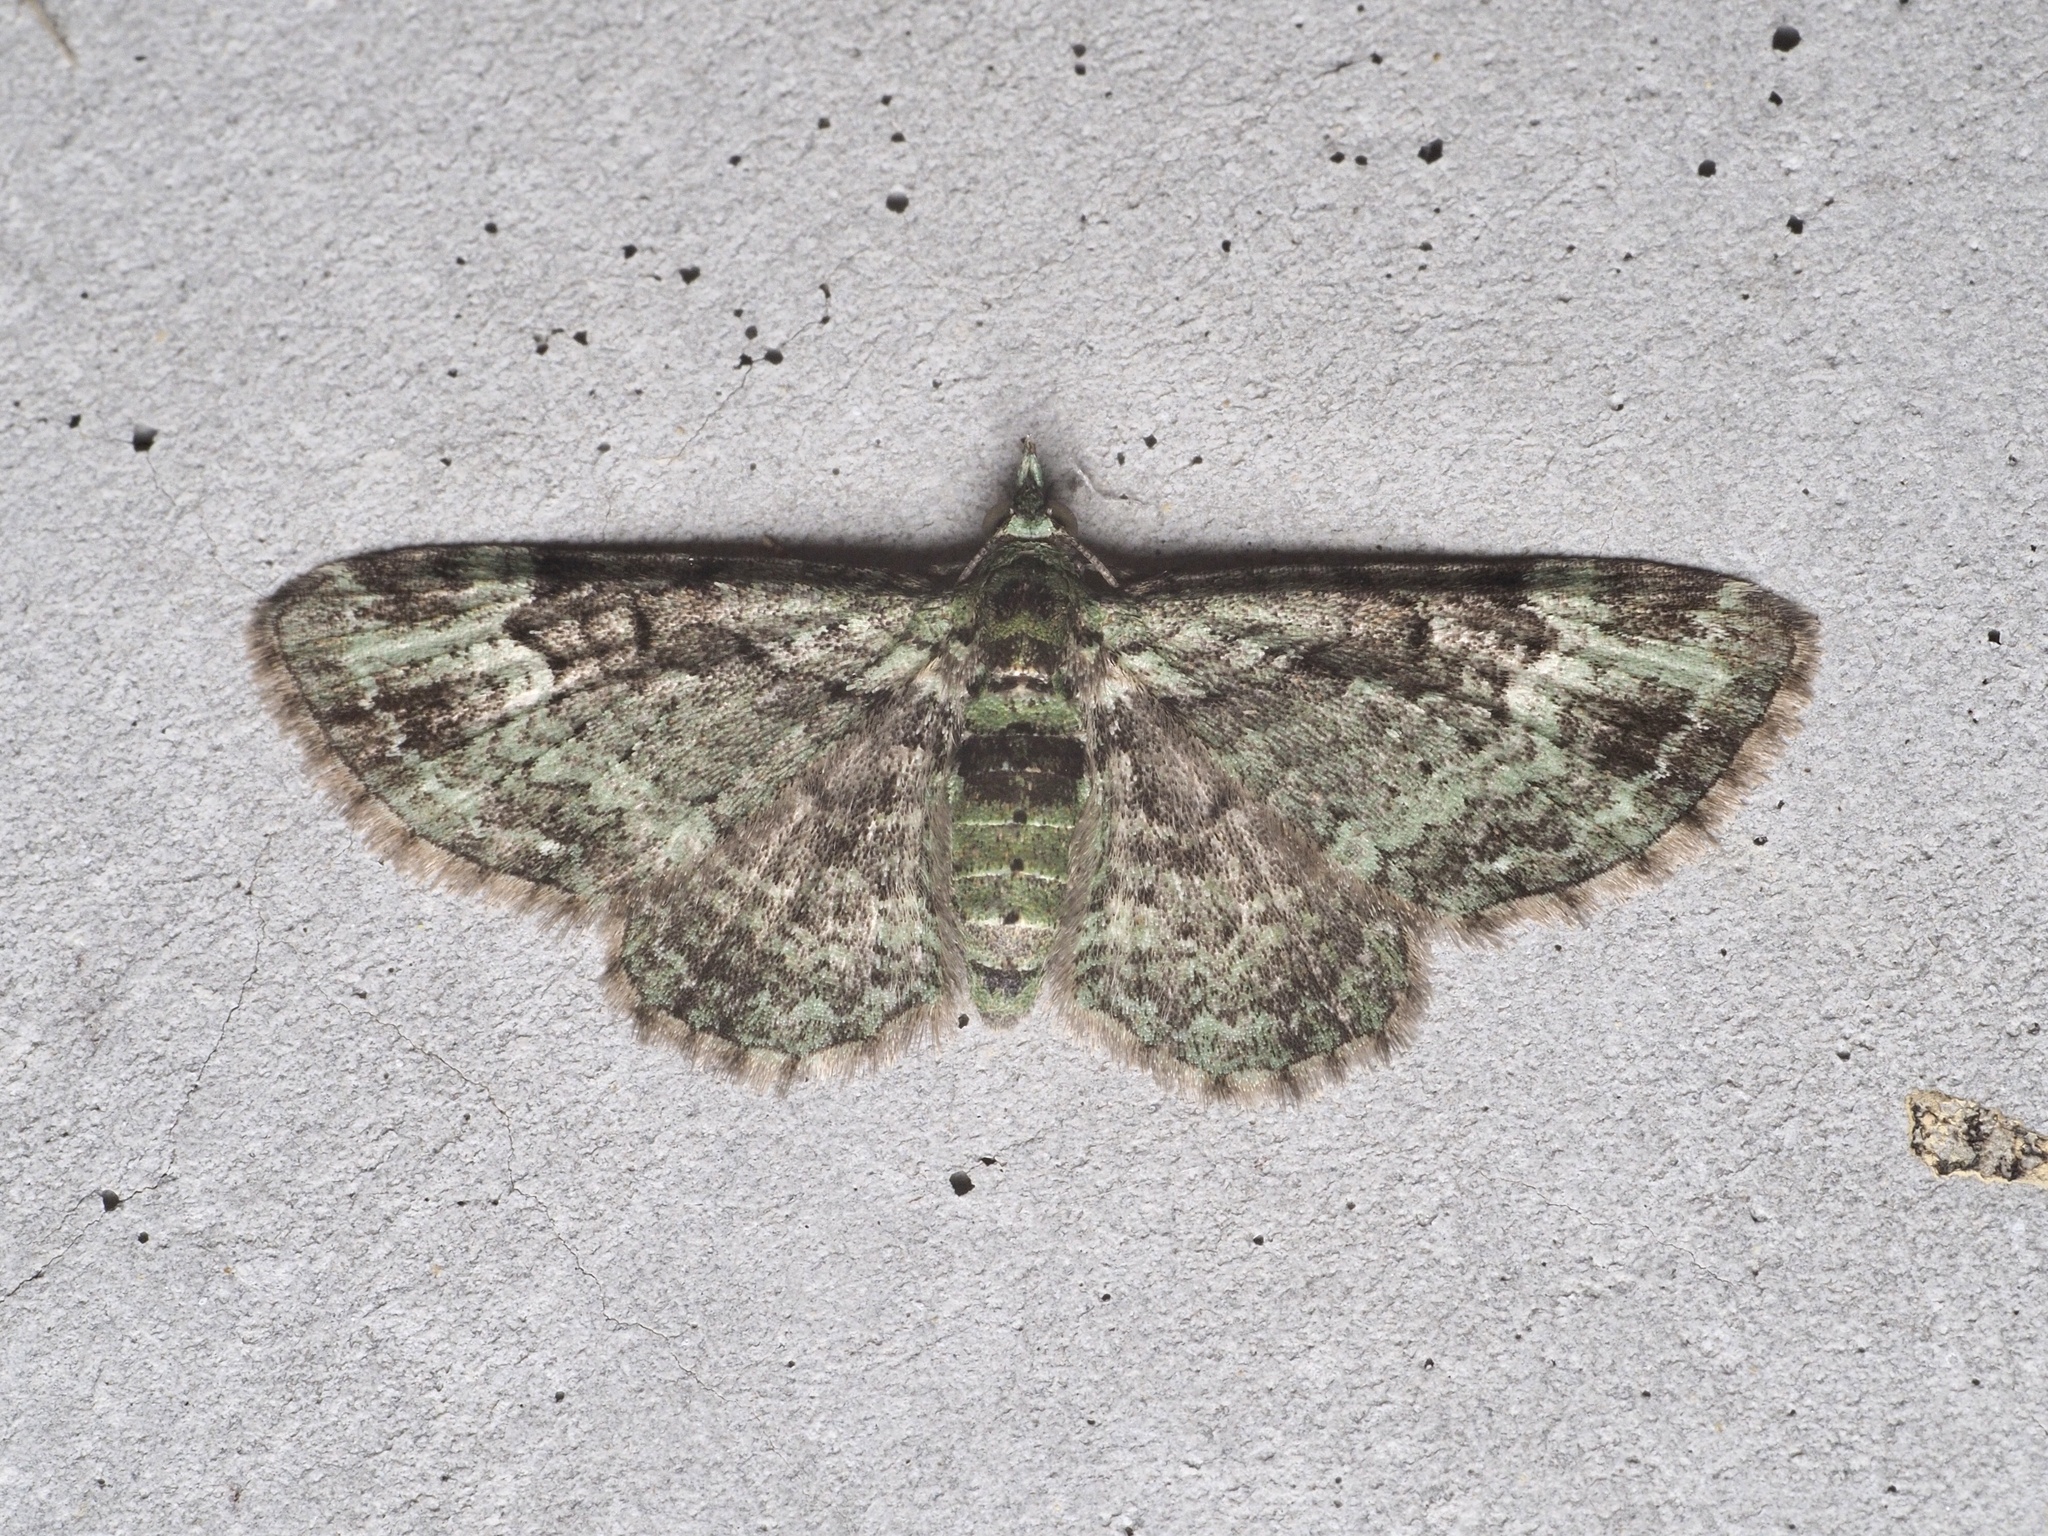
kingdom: Animalia
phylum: Arthropoda
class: Insecta
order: Lepidoptera
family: Geometridae
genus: Pasiphila
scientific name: Pasiphila rectangulata
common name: Green pug
